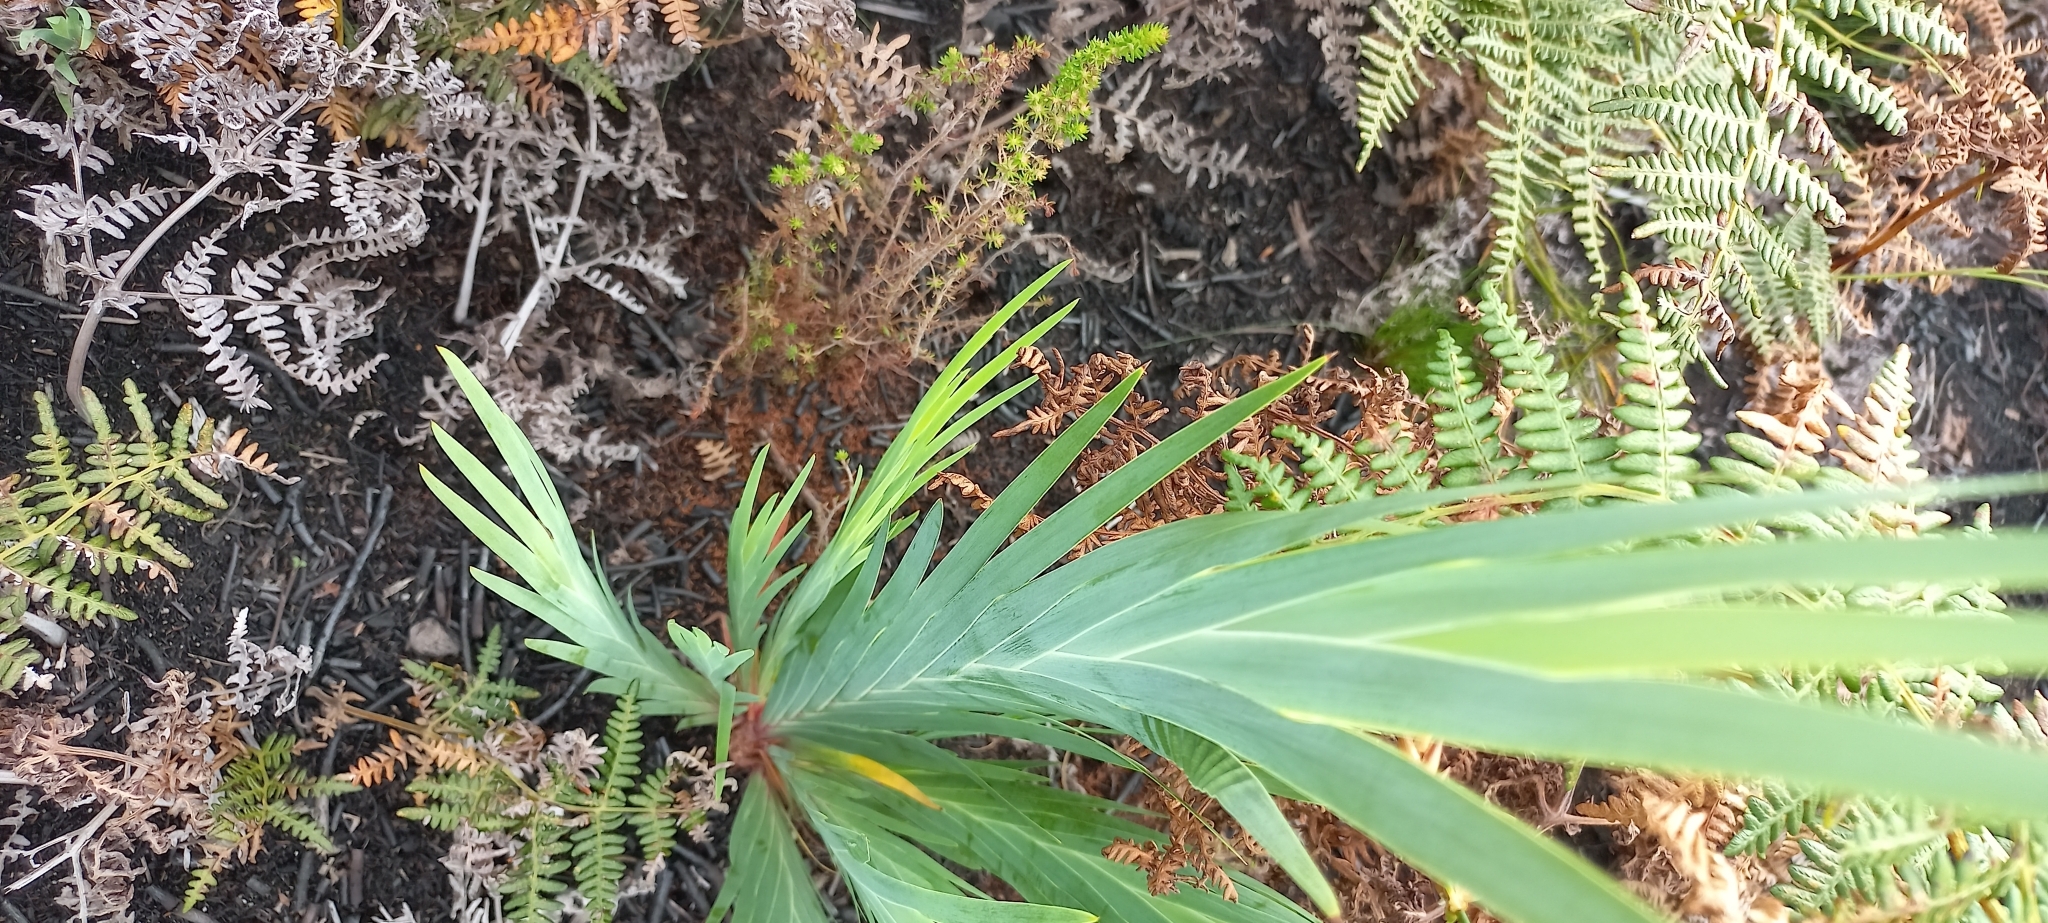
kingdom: Plantae
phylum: Tracheophyta
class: Liliopsida
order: Asparagales
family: Iridaceae
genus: Nivenia
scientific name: Nivenia stokoei
